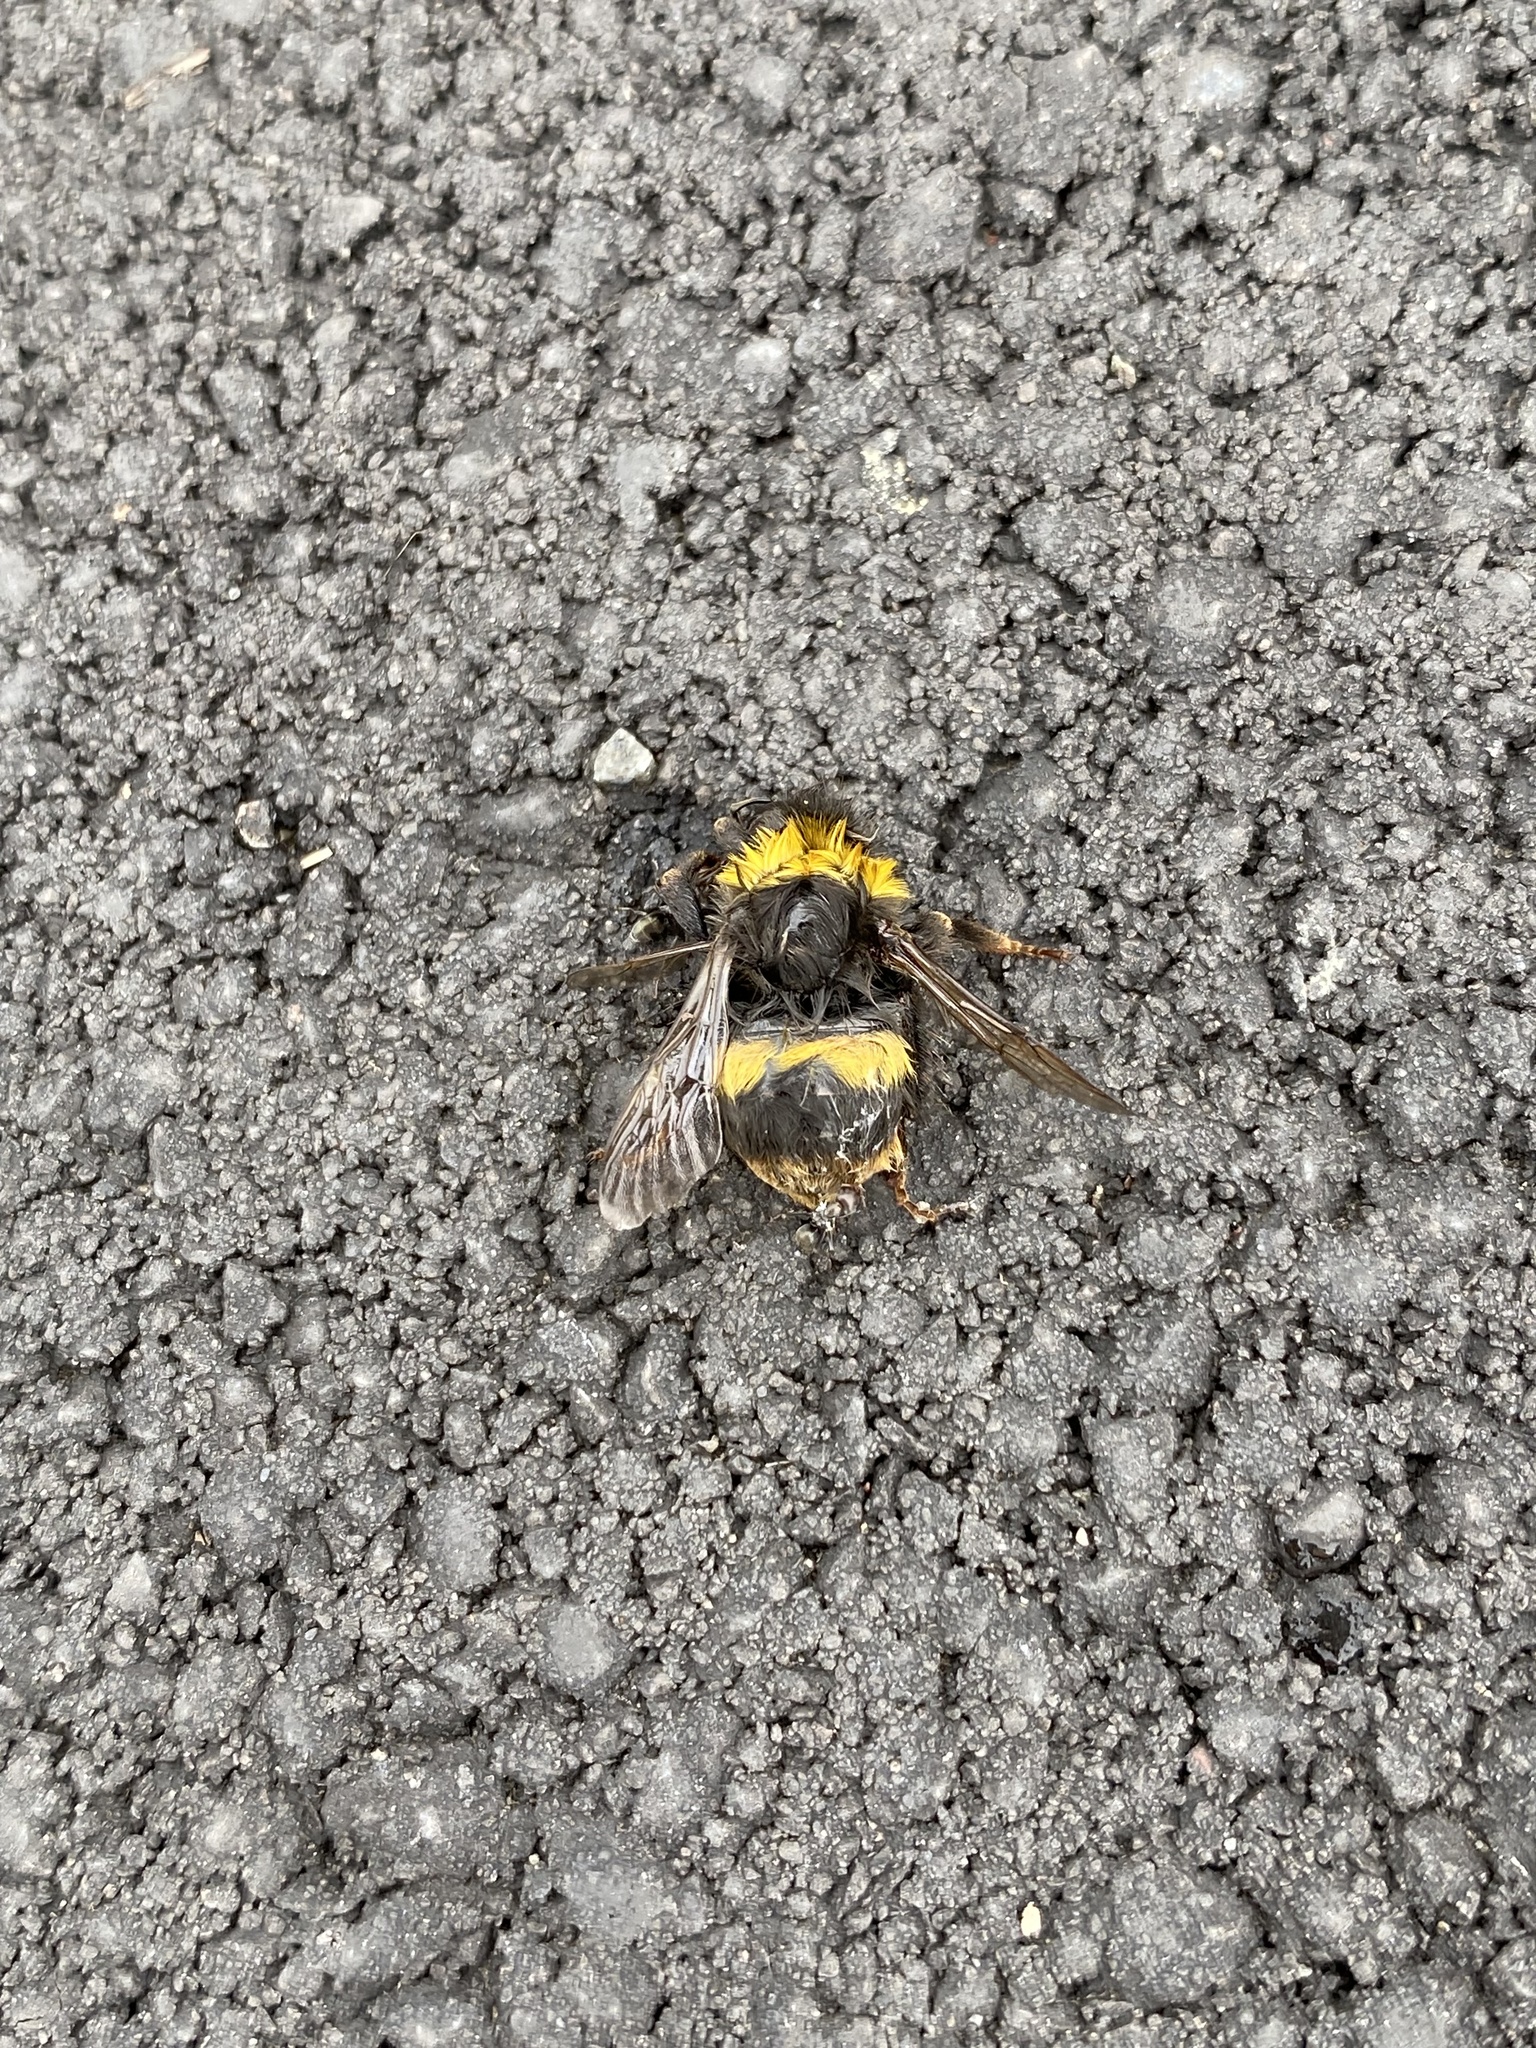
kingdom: Animalia
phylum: Arthropoda
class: Insecta
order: Hymenoptera
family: Apidae
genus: Bombus
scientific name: Bombus terrestris
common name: Buff-tailed bumblebee
